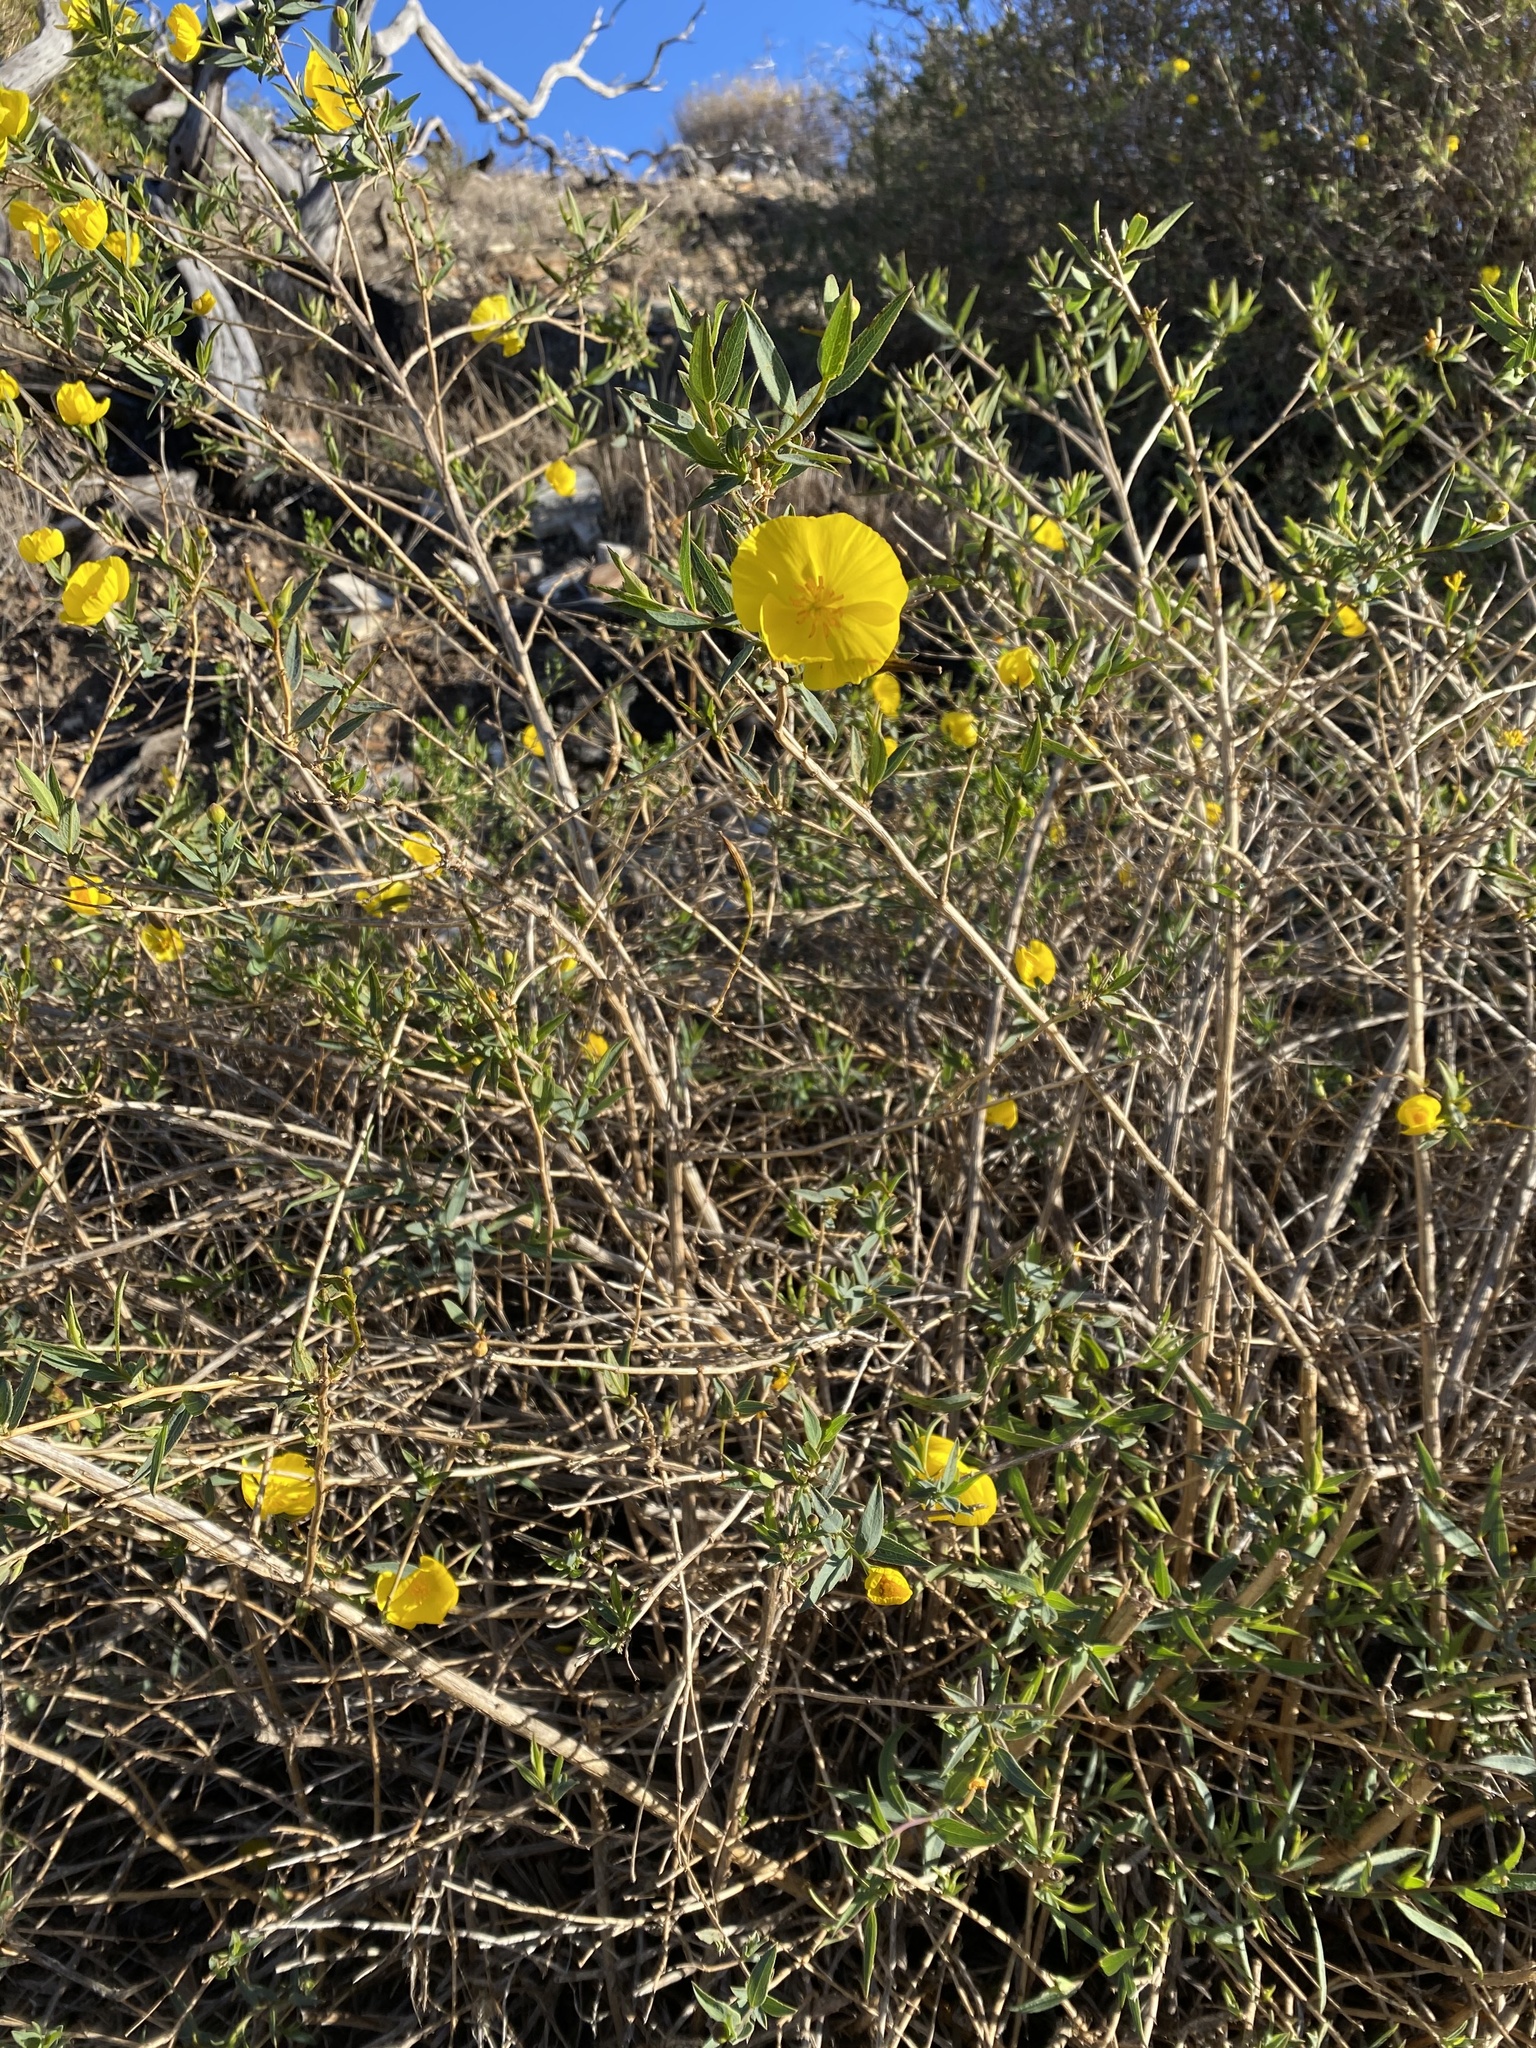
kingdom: Plantae
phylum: Tracheophyta
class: Magnoliopsida
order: Ranunculales
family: Papaveraceae
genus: Dendromecon
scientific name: Dendromecon rigida
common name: Tree poppy
